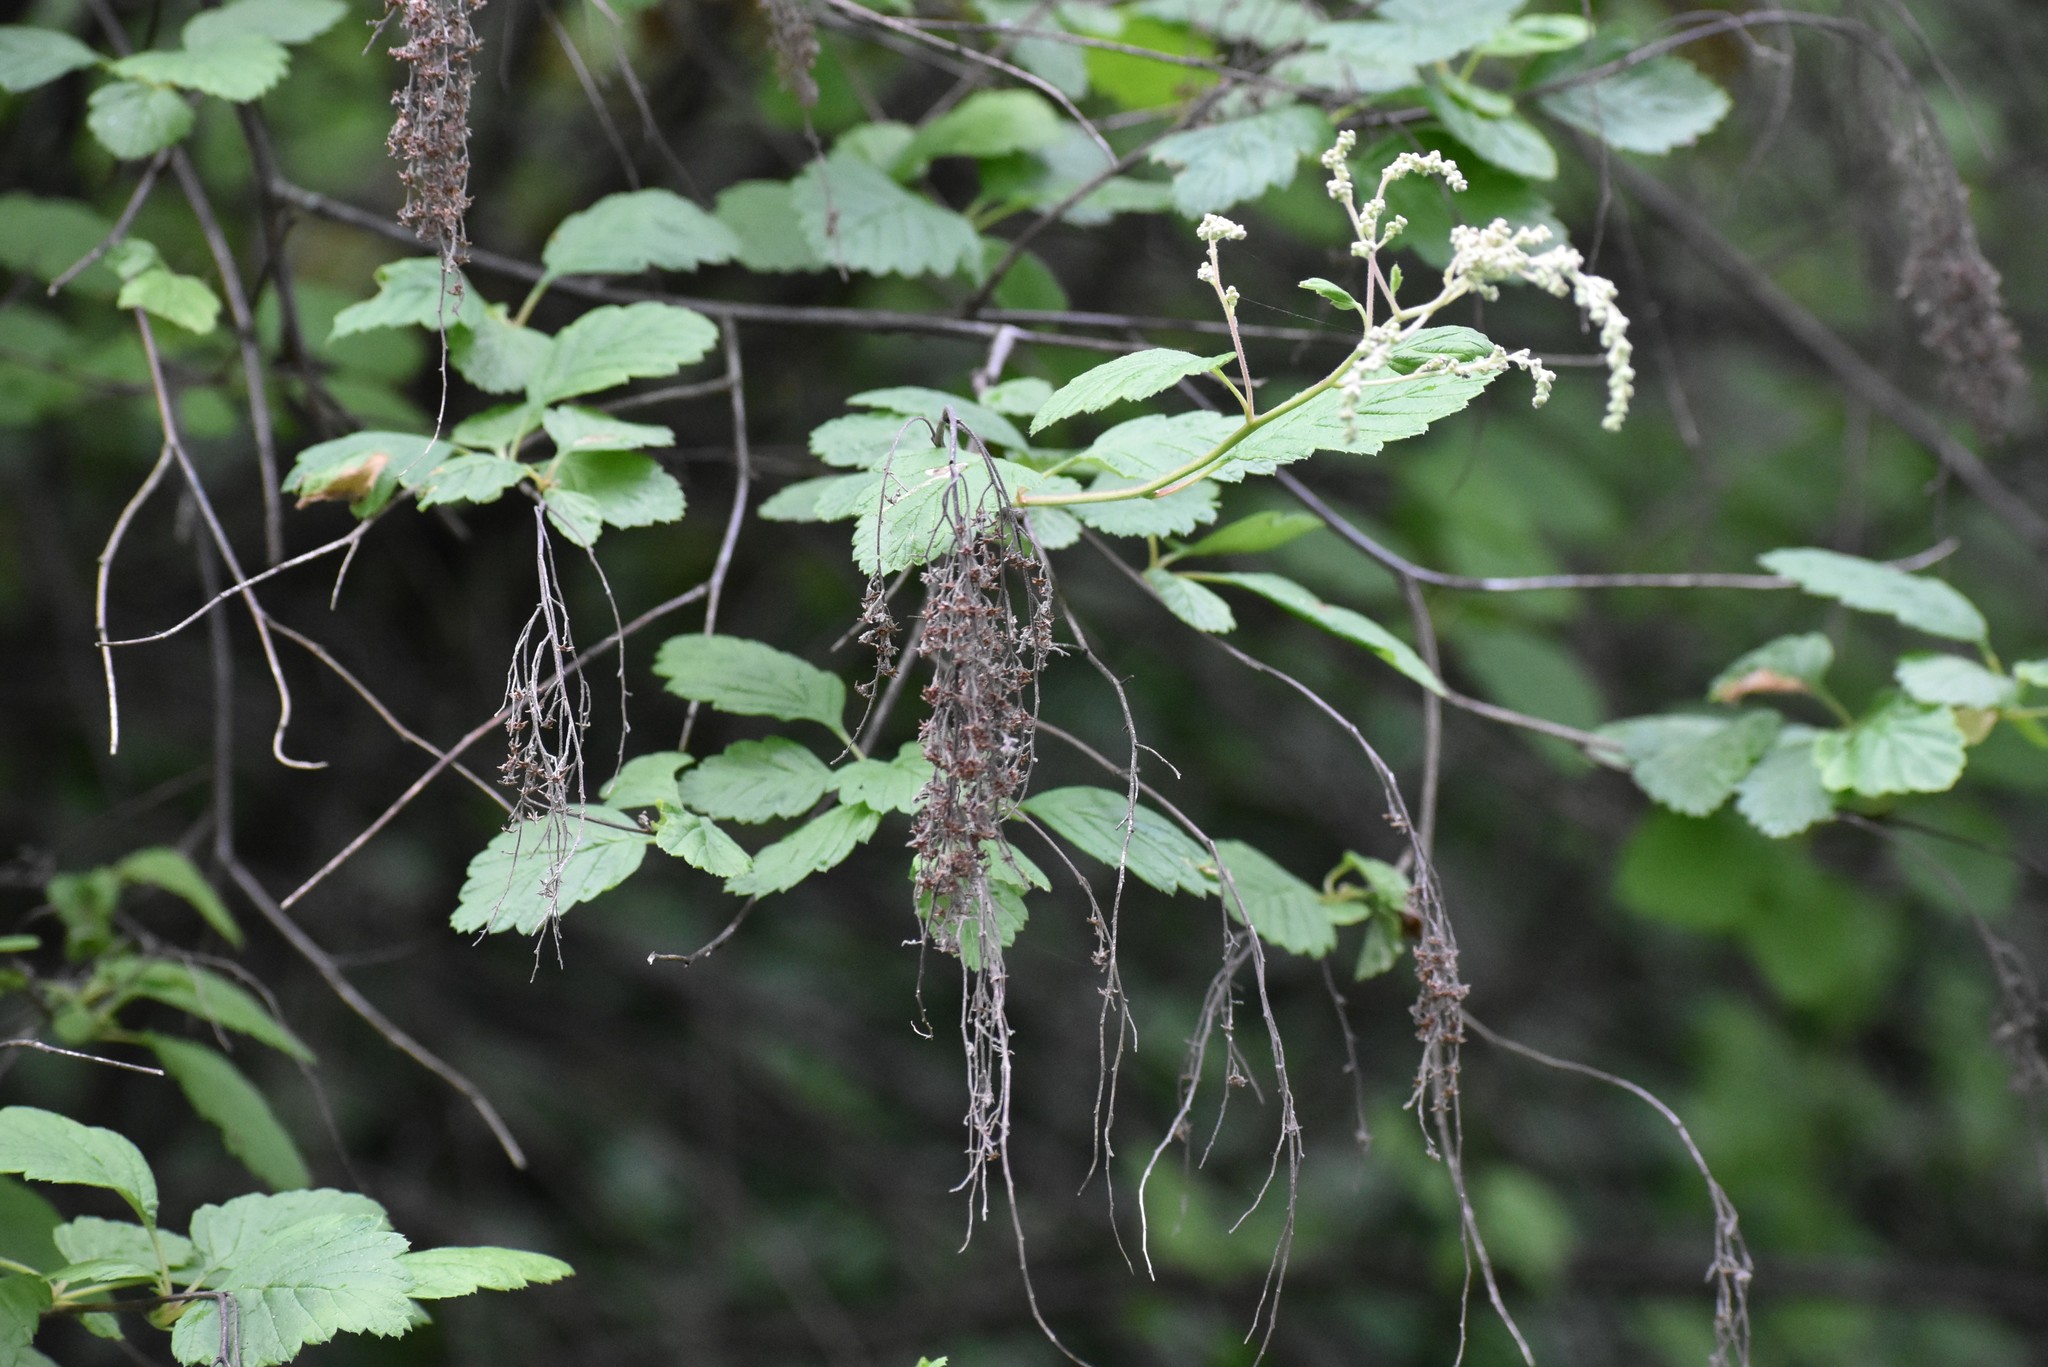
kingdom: Plantae
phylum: Tracheophyta
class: Magnoliopsida
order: Rosales
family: Rosaceae
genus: Holodiscus
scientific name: Holodiscus discolor
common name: Oceanspray
